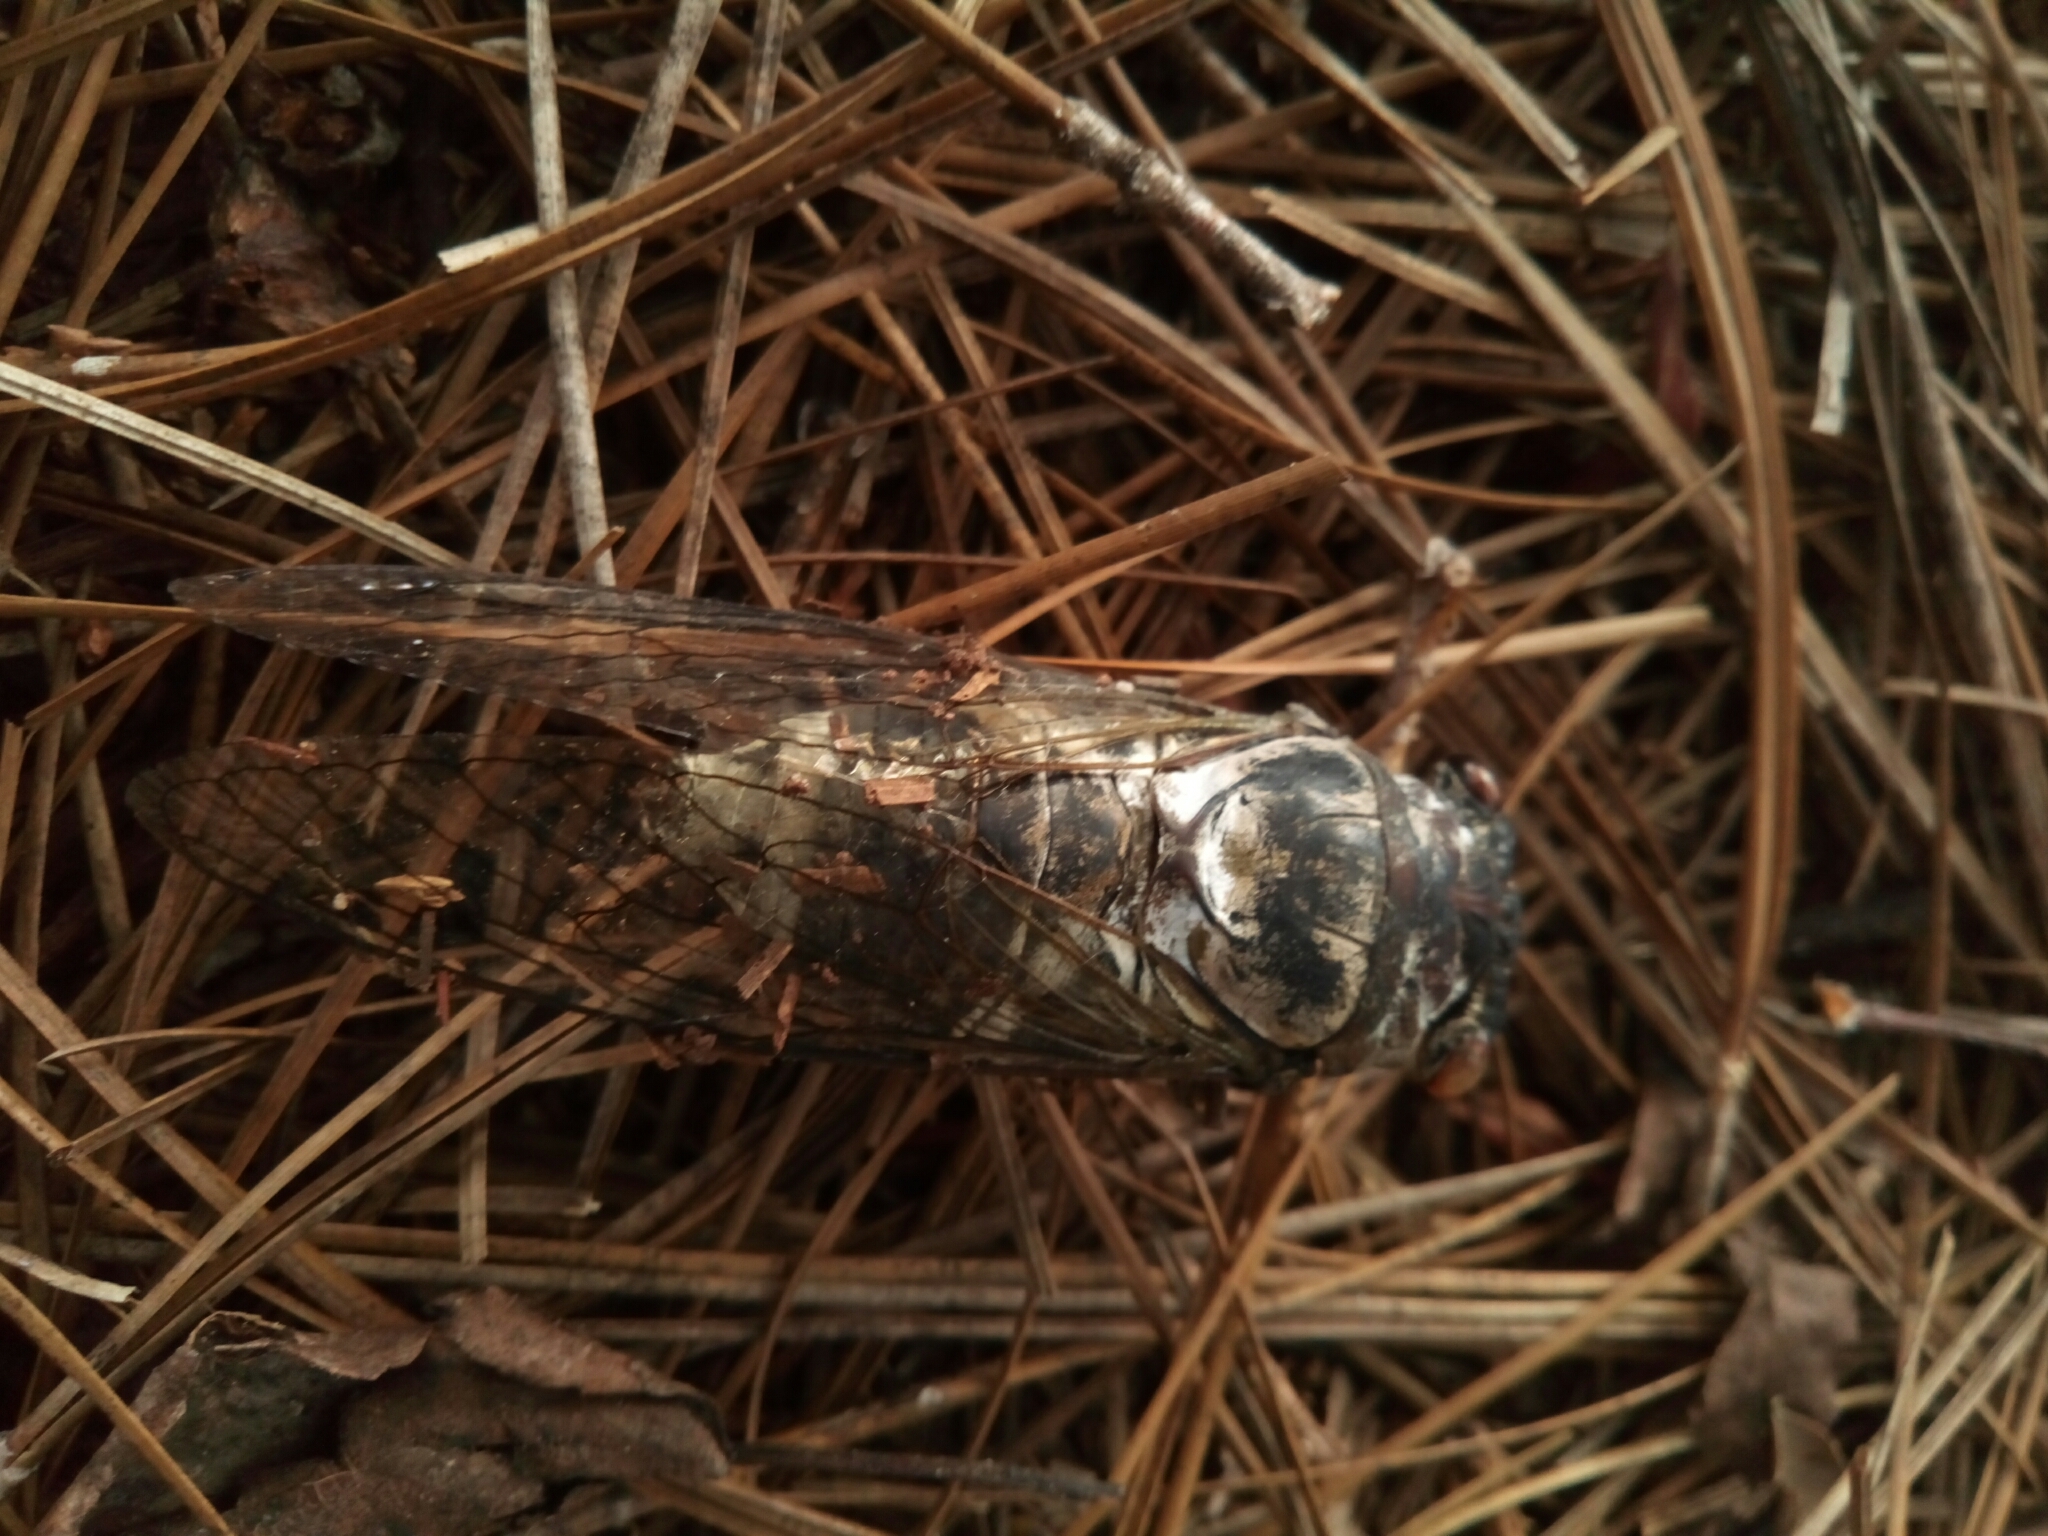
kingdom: Animalia
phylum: Arthropoda
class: Insecta
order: Hemiptera
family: Cicadidae
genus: Diceroprocta
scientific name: Diceroprocta grossa
